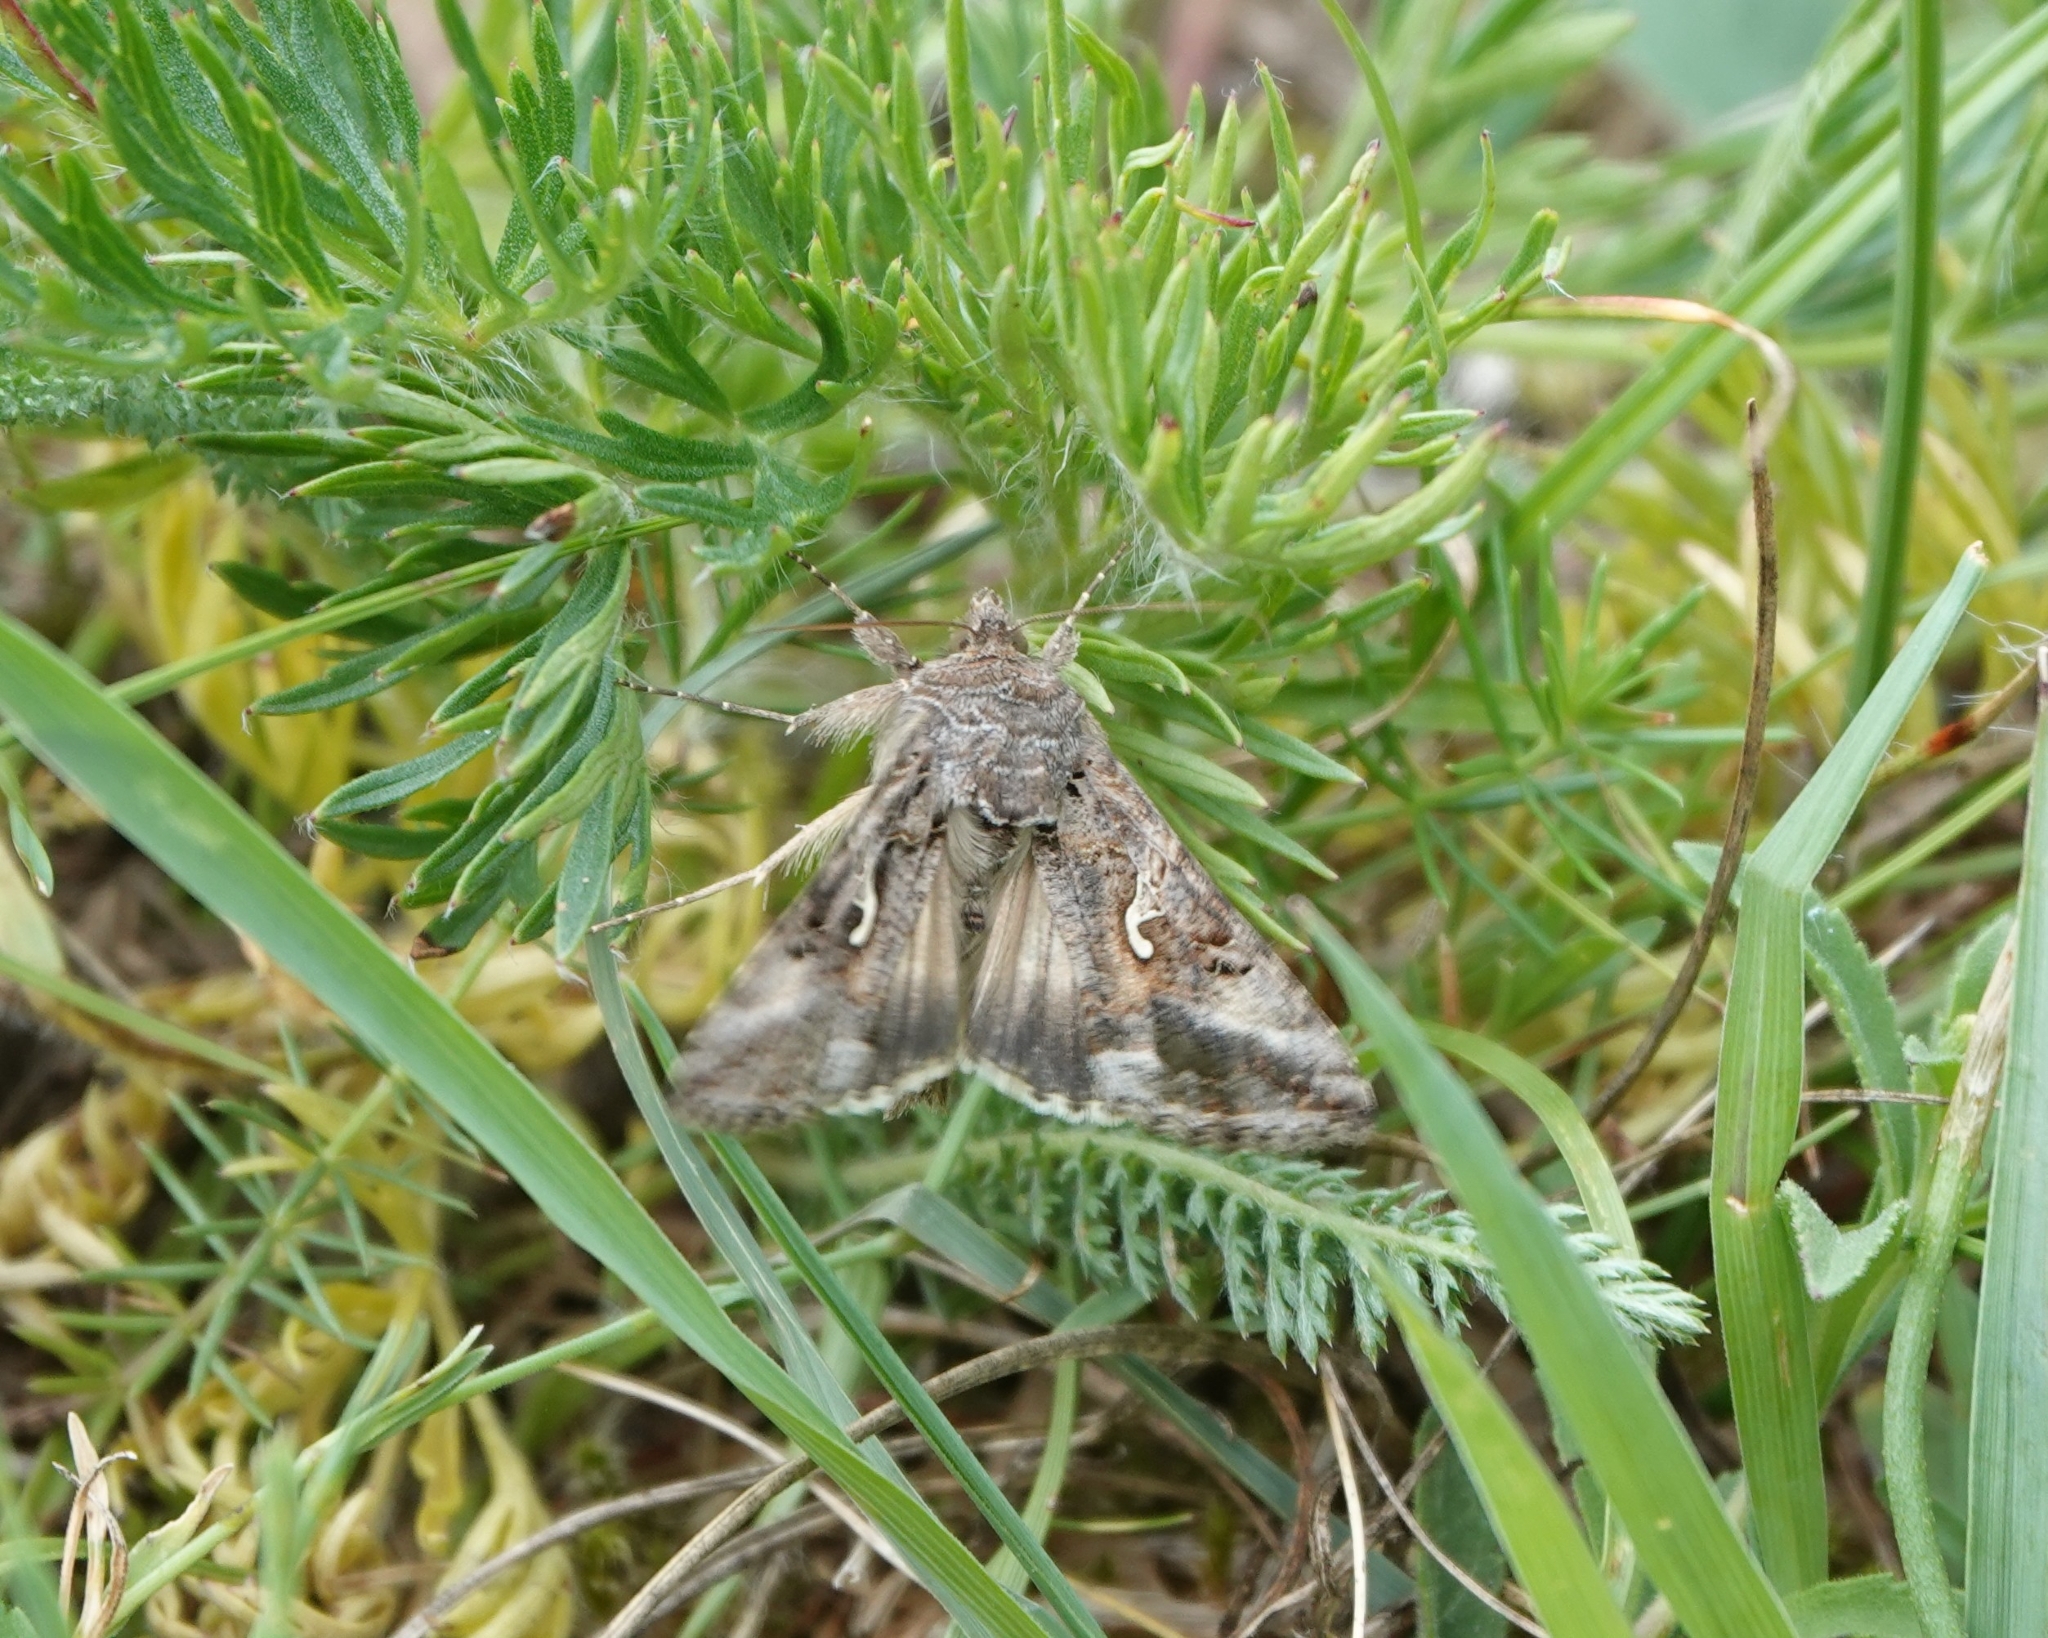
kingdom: Animalia
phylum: Arthropoda
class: Insecta
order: Lepidoptera
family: Noctuidae
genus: Autographa
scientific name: Autographa gamma
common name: Silver y
